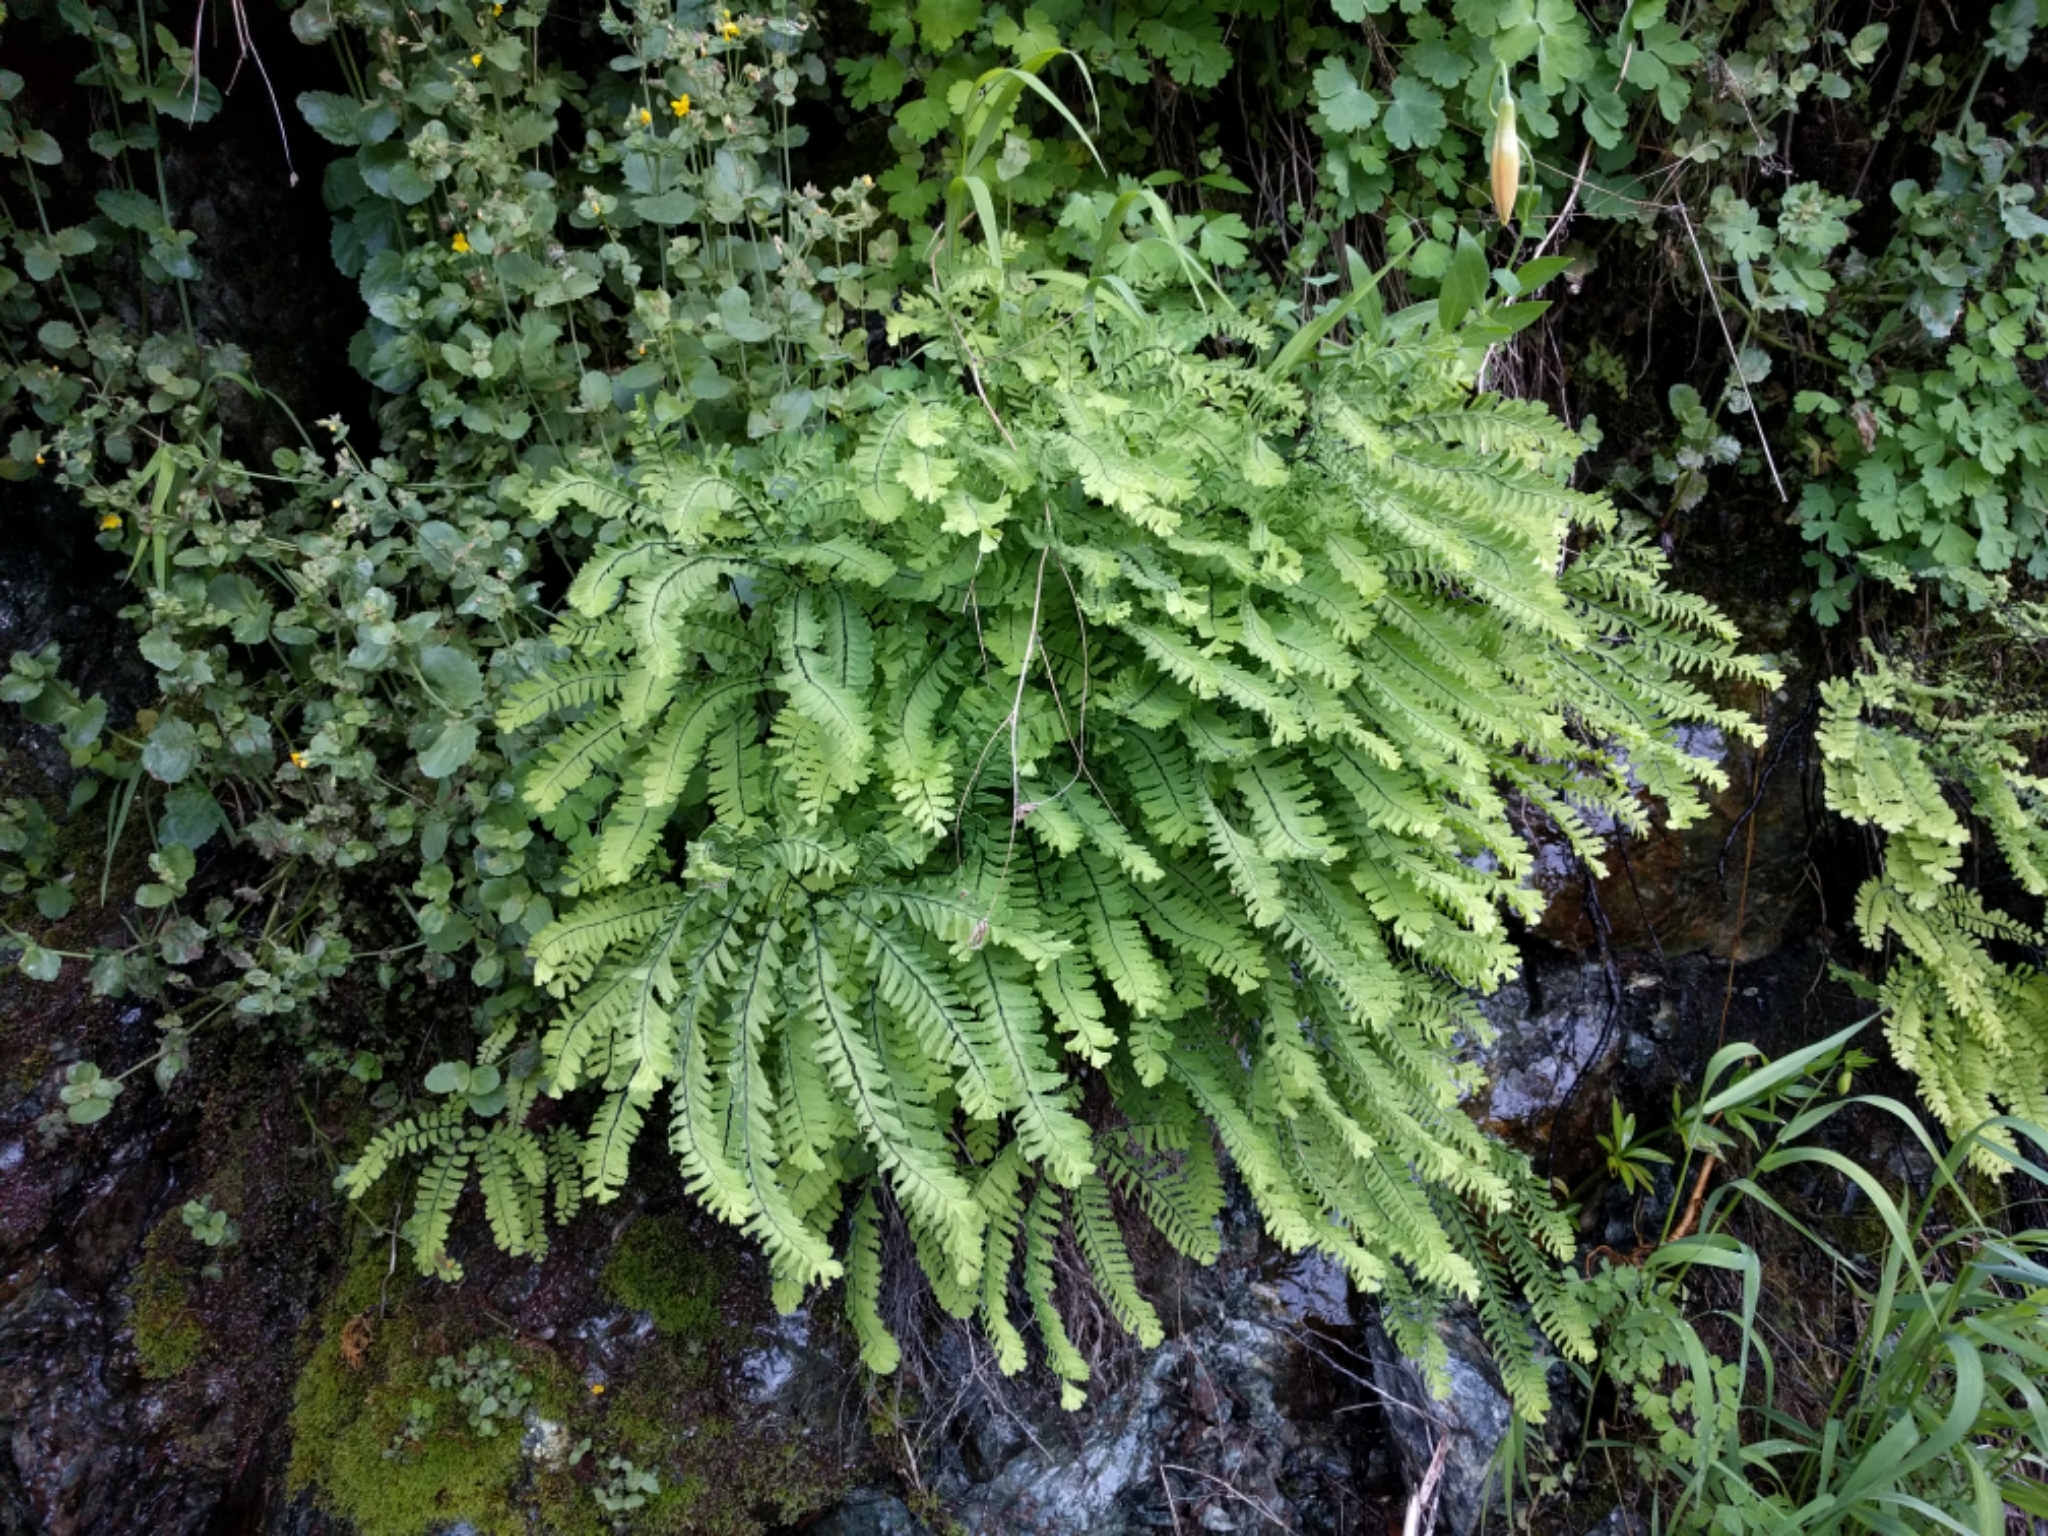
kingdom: Plantae
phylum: Tracheophyta
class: Polypodiopsida
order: Polypodiales
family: Pteridaceae
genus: Adiantum
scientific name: Adiantum aleuticum
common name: Aleutian maidenhair fern
